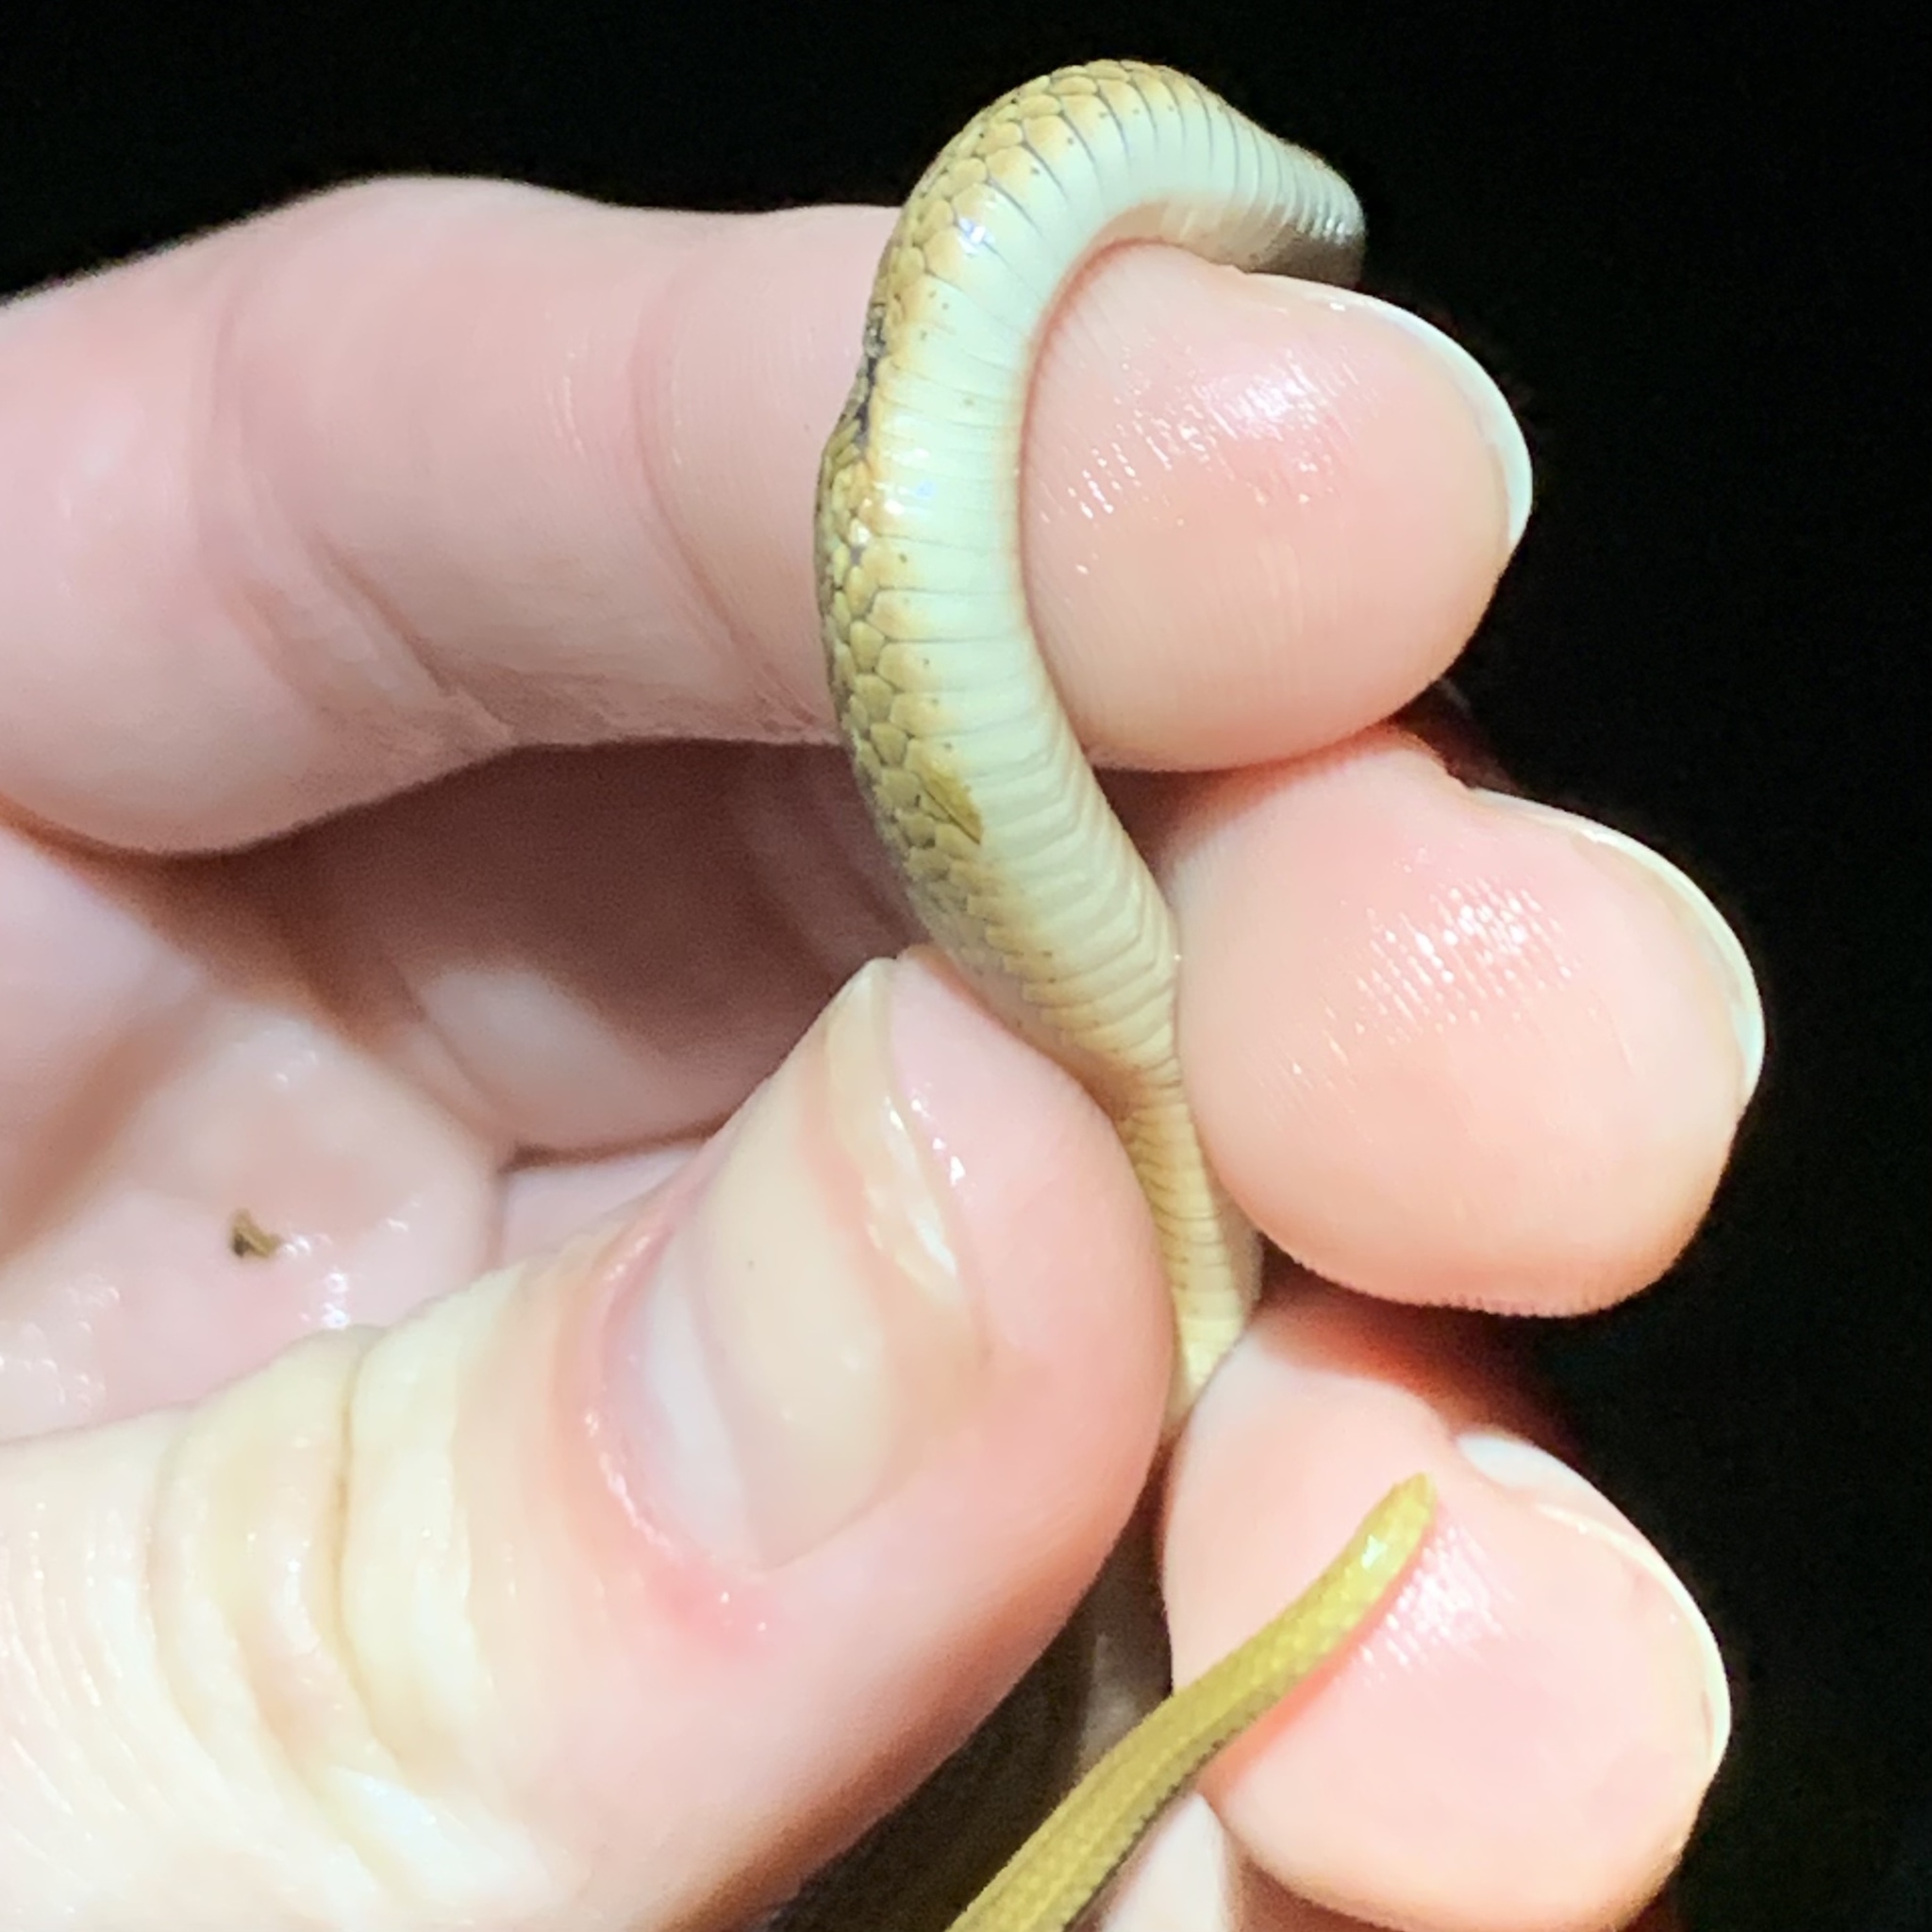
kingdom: Animalia
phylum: Chordata
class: Squamata
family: Colubridae
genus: Storeria
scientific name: Storeria dekayi
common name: (dekay’s) brown snake
